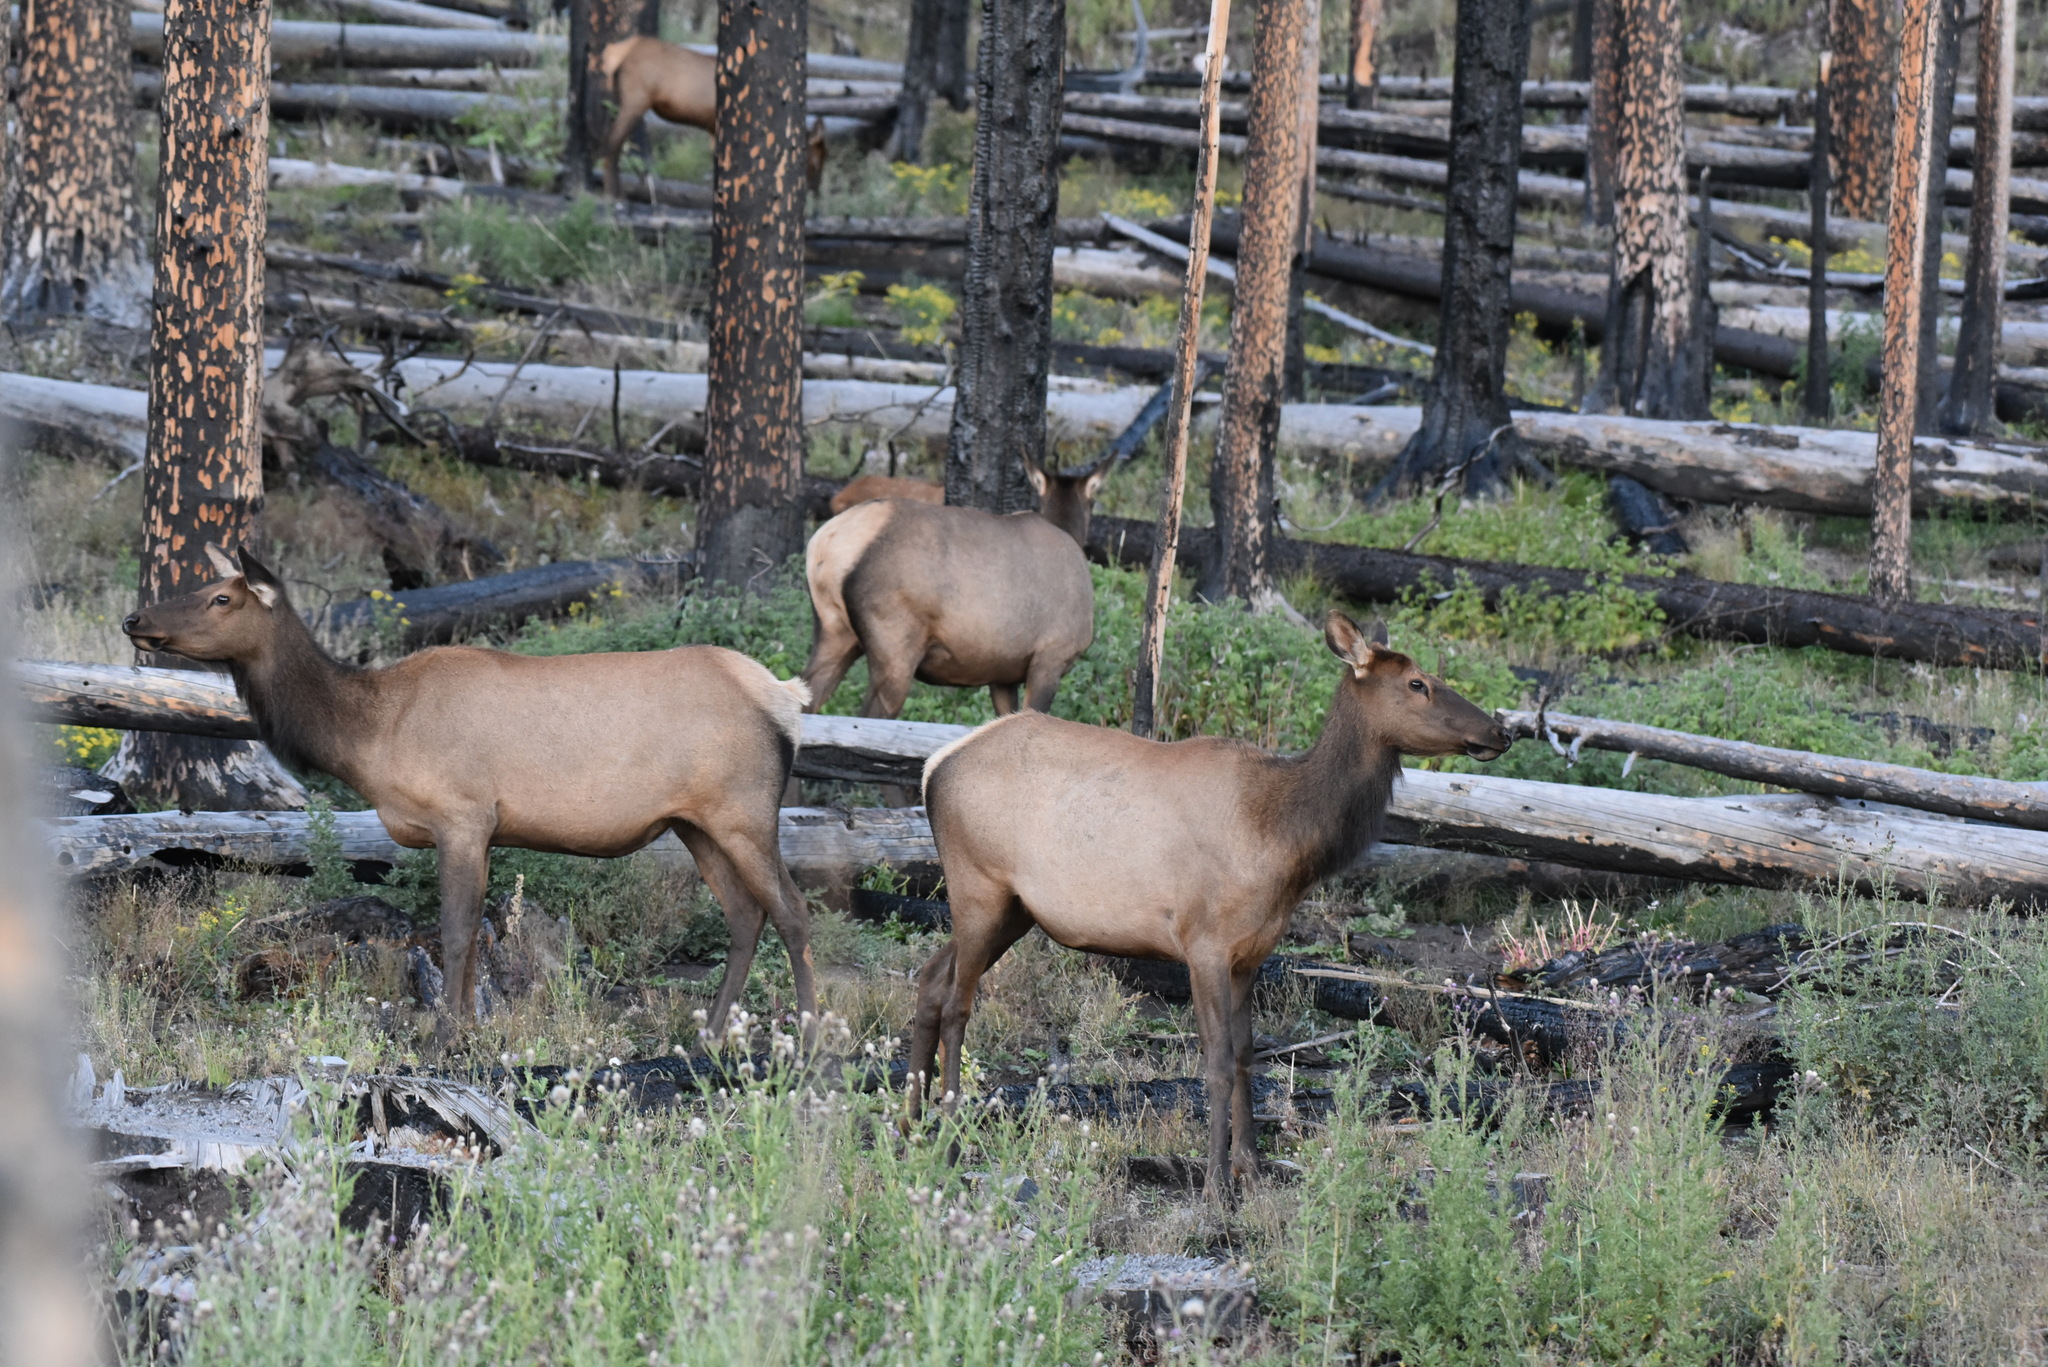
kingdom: Animalia
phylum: Chordata
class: Mammalia
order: Artiodactyla
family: Cervidae
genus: Cervus
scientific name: Cervus elaphus
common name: Red deer
